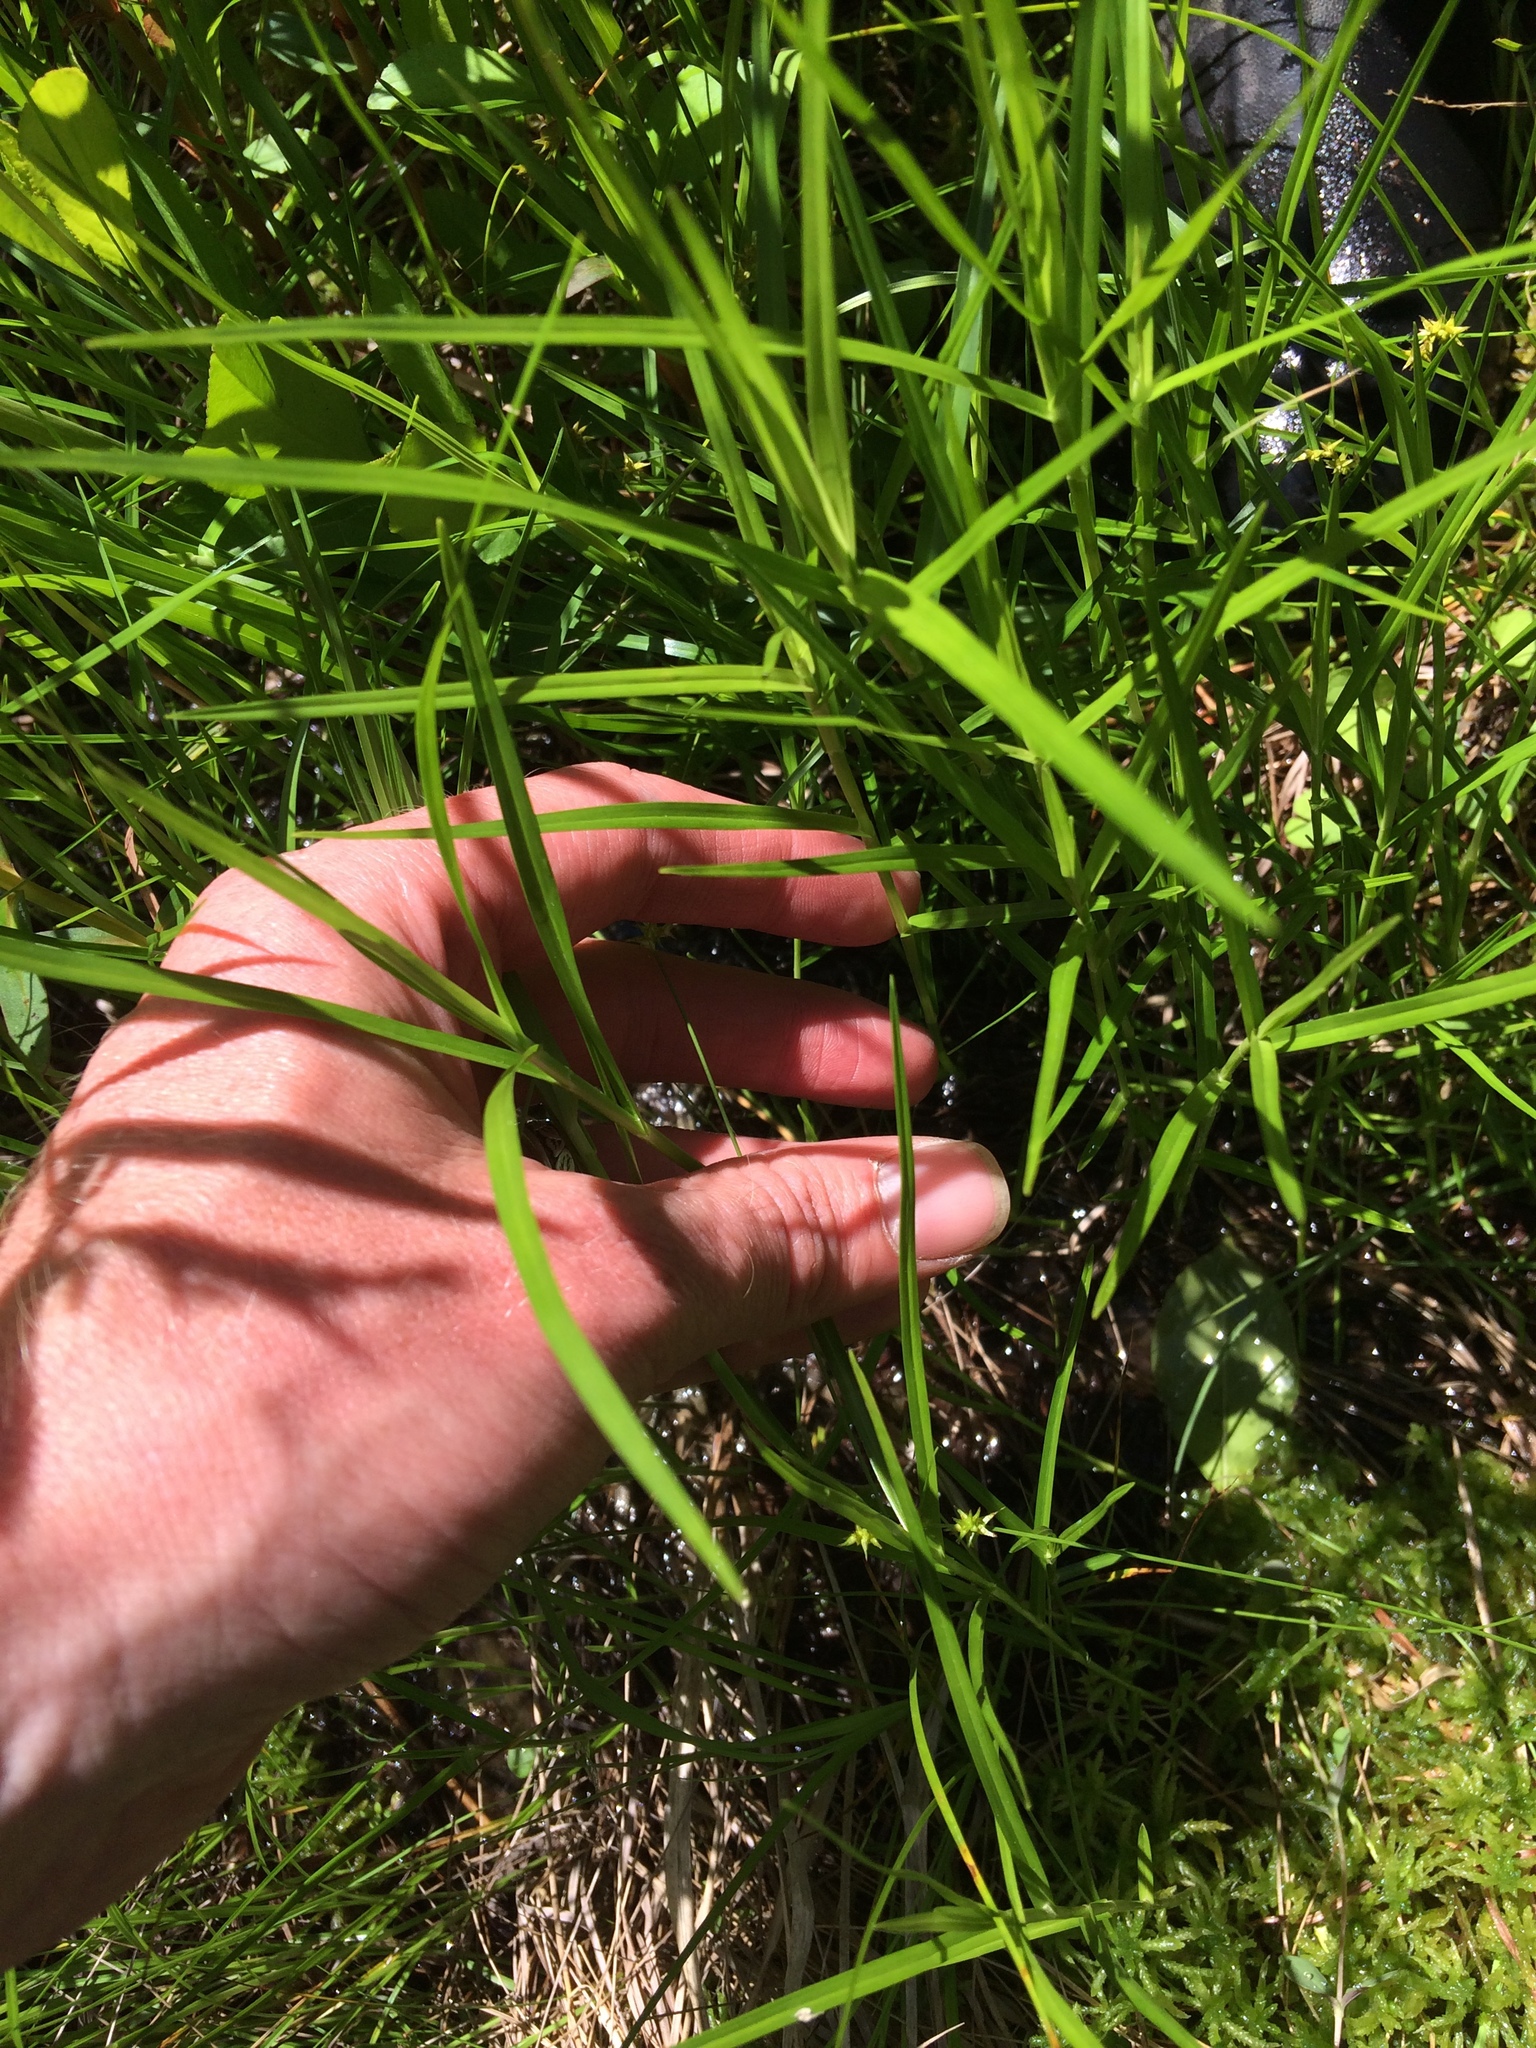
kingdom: Plantae
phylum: Tracheophyta
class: Liliopsida
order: Poales
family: Cyperaceae
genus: Dulichium
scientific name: Dulichium arundinaceum
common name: Three-way sedge
